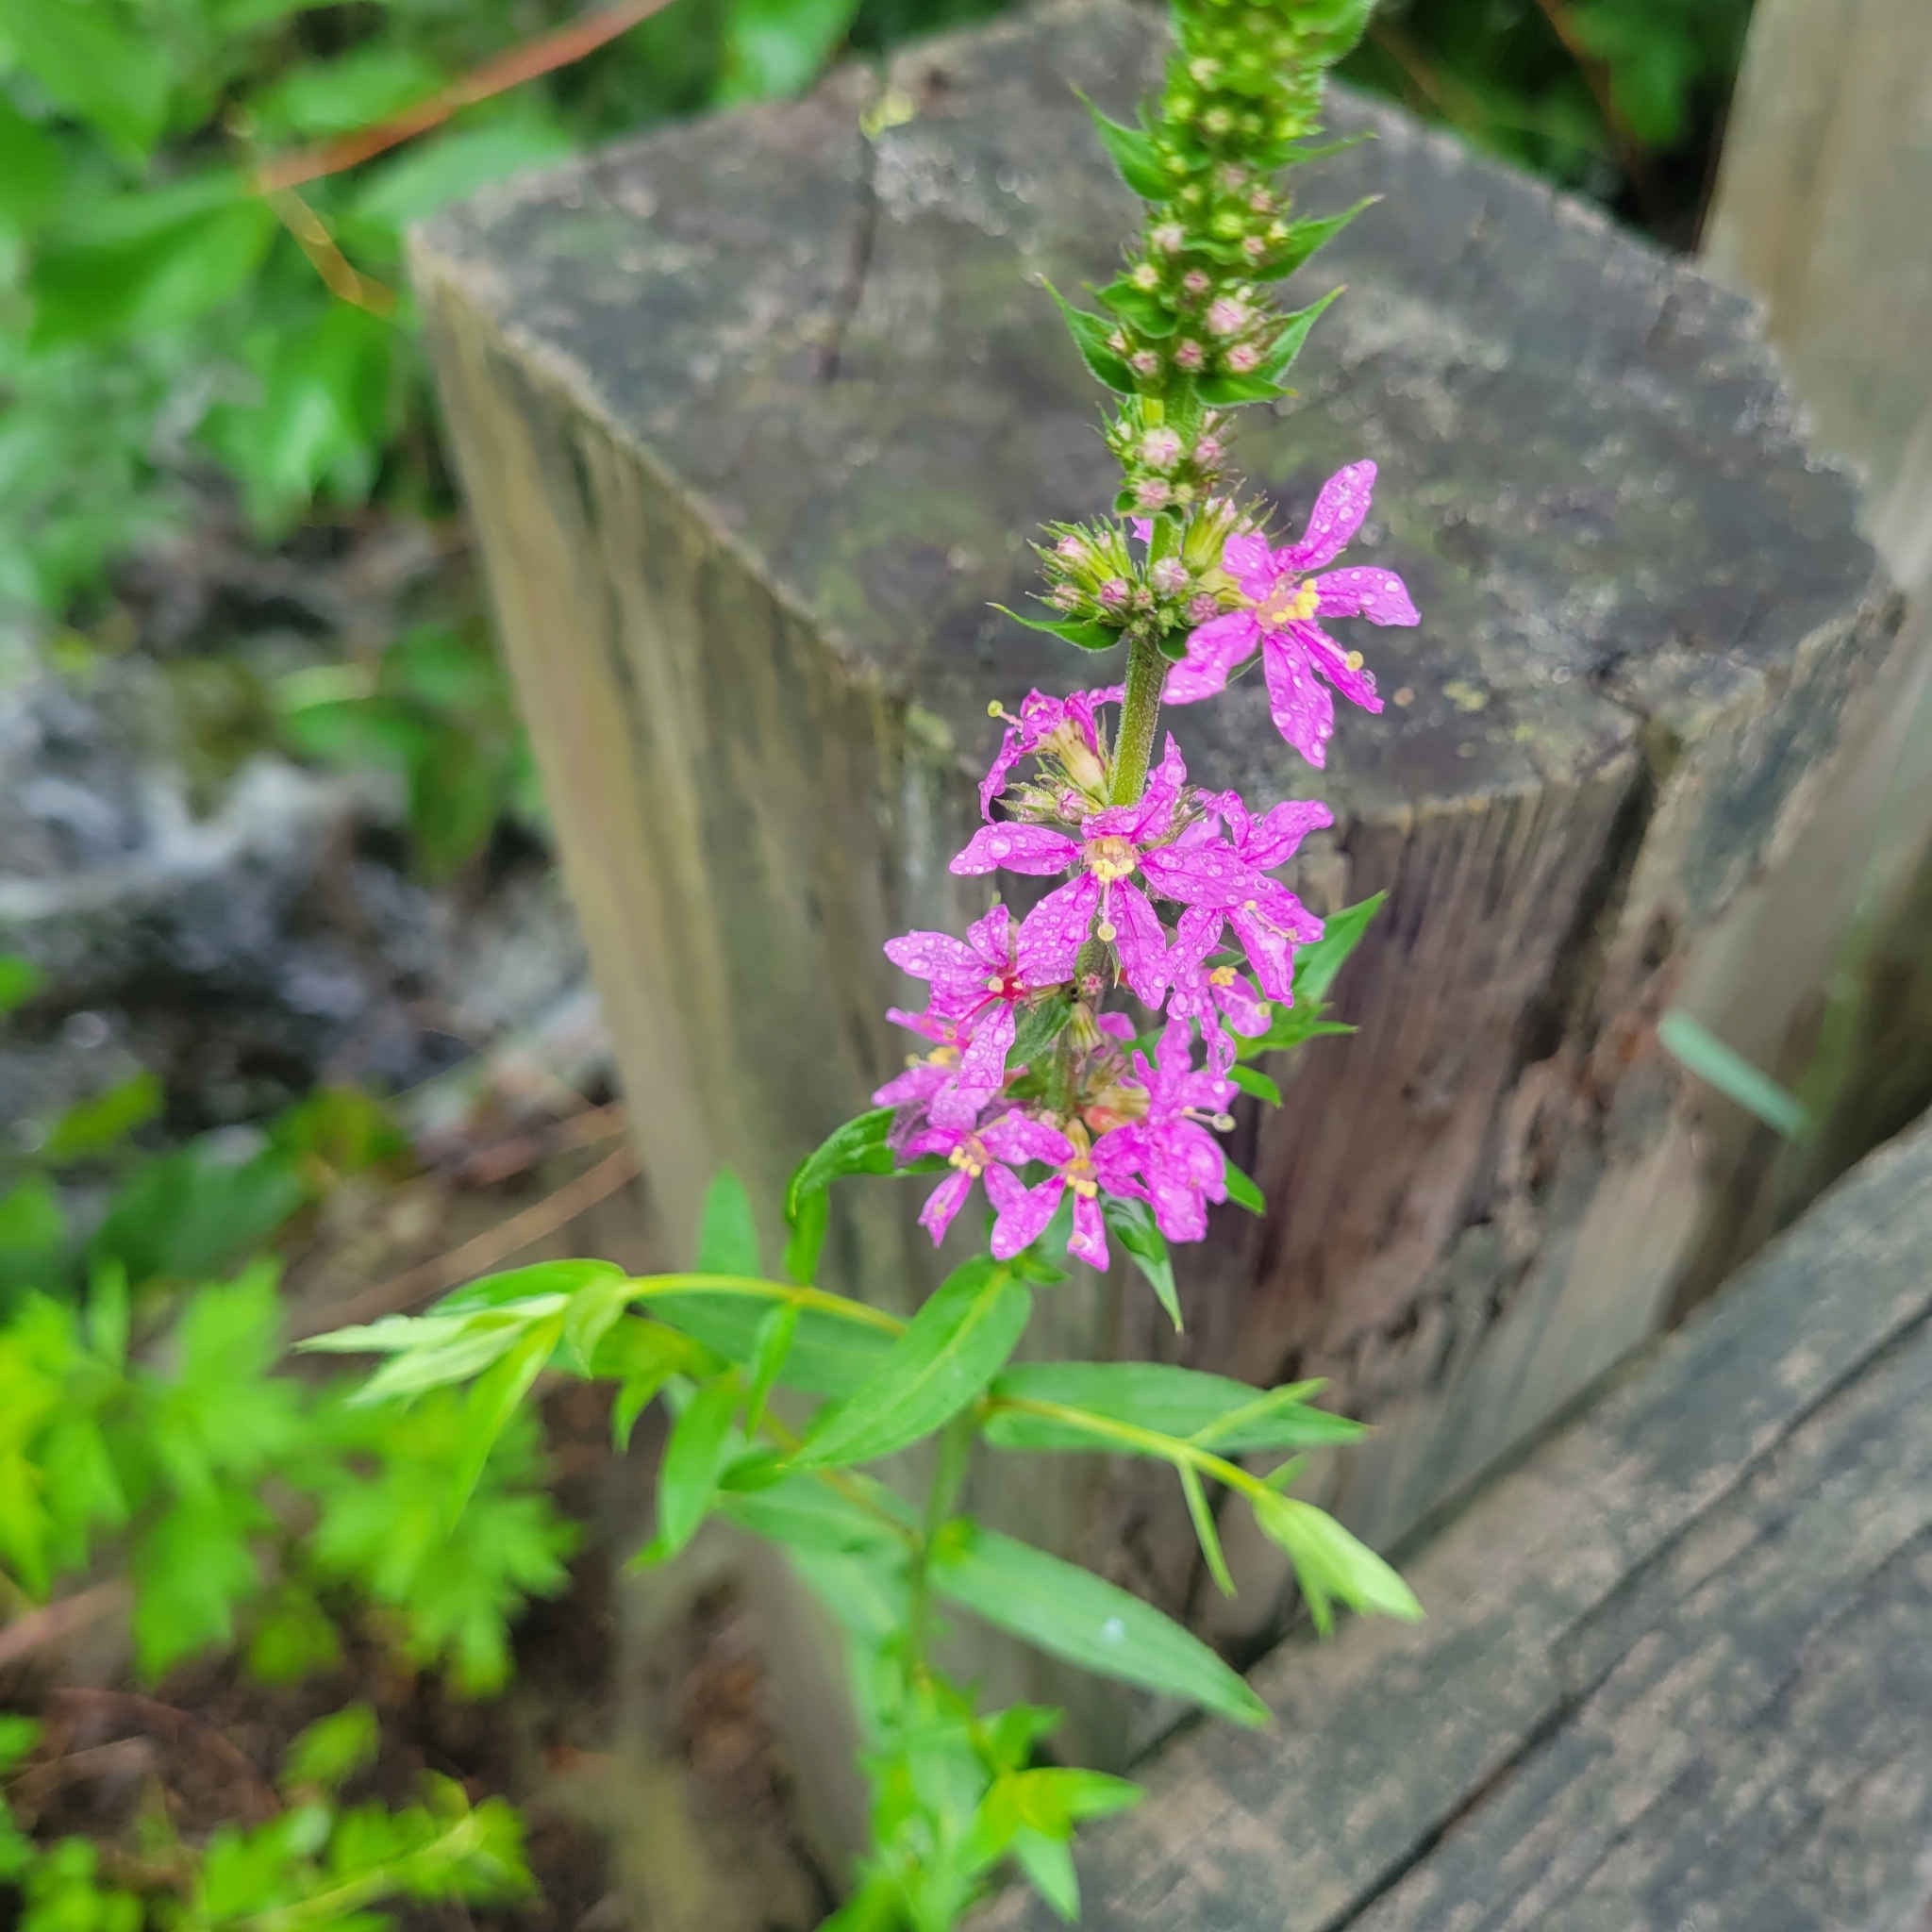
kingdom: Plantae
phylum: Tracheophyta
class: Magnoliopsida
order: Myrtales
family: Lythraceae
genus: Lythrum
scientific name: Lythrum salicaria
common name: Purple loosestrife
